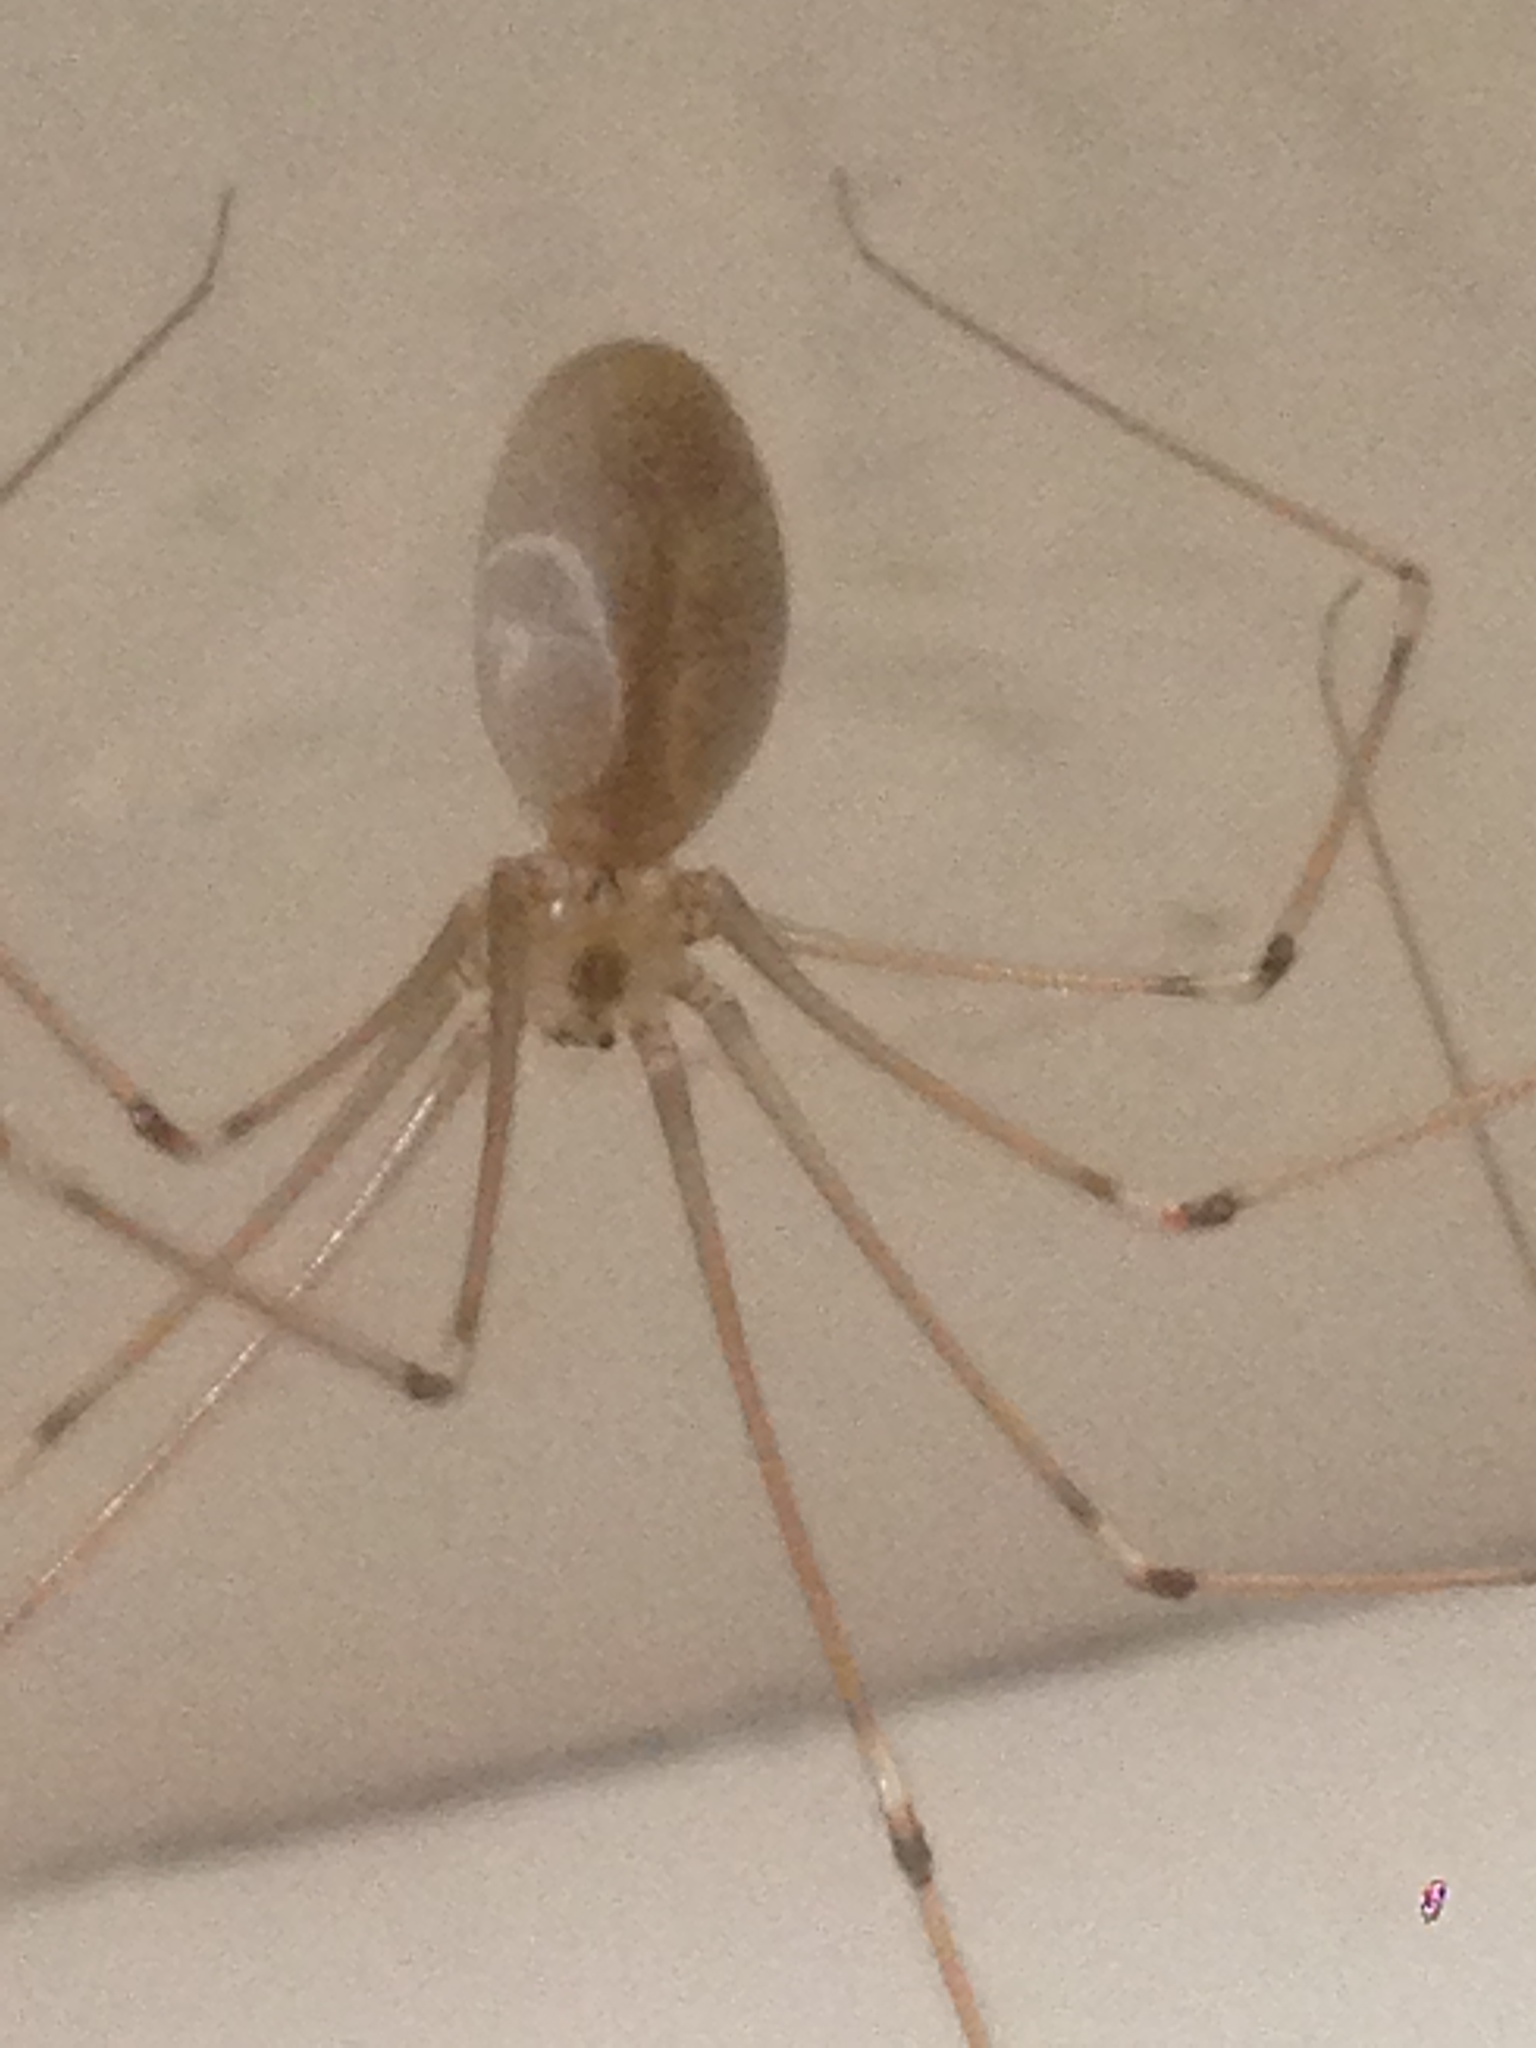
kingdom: Animalia
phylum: Arthropoda
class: Arachnida
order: Araneae
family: Pholcidae
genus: Pholcus
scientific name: Pholcus phalangioides
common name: Longbodied cellar spider
